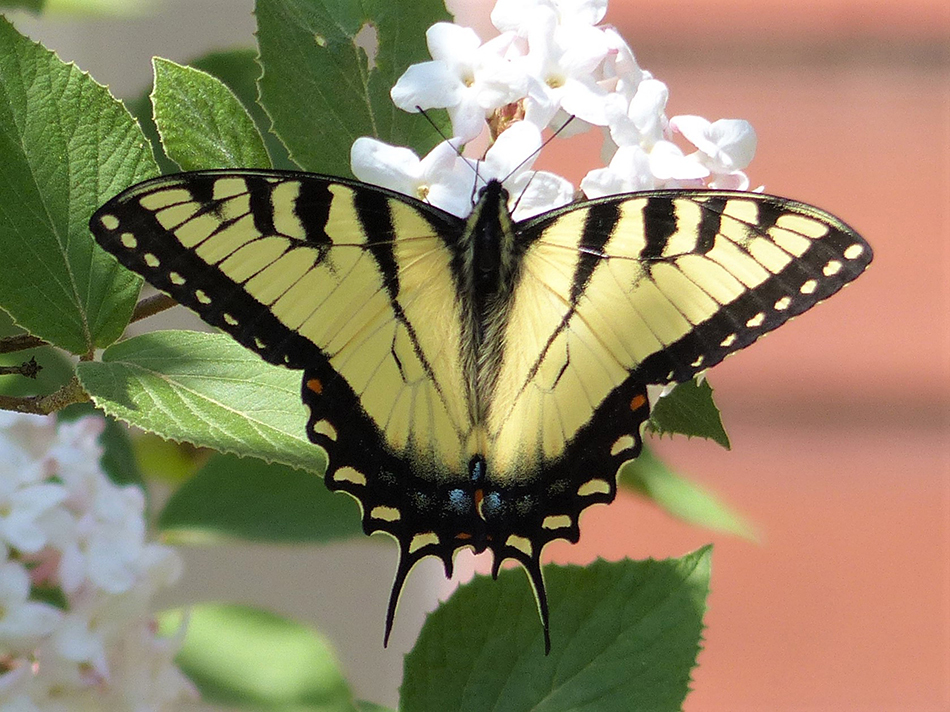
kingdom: Animalia
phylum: Arthropoda
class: Insecta
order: Lepidoptera
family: Papilionidae
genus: Papilio
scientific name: Papilio glaucus
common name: Tiger swallowtail
